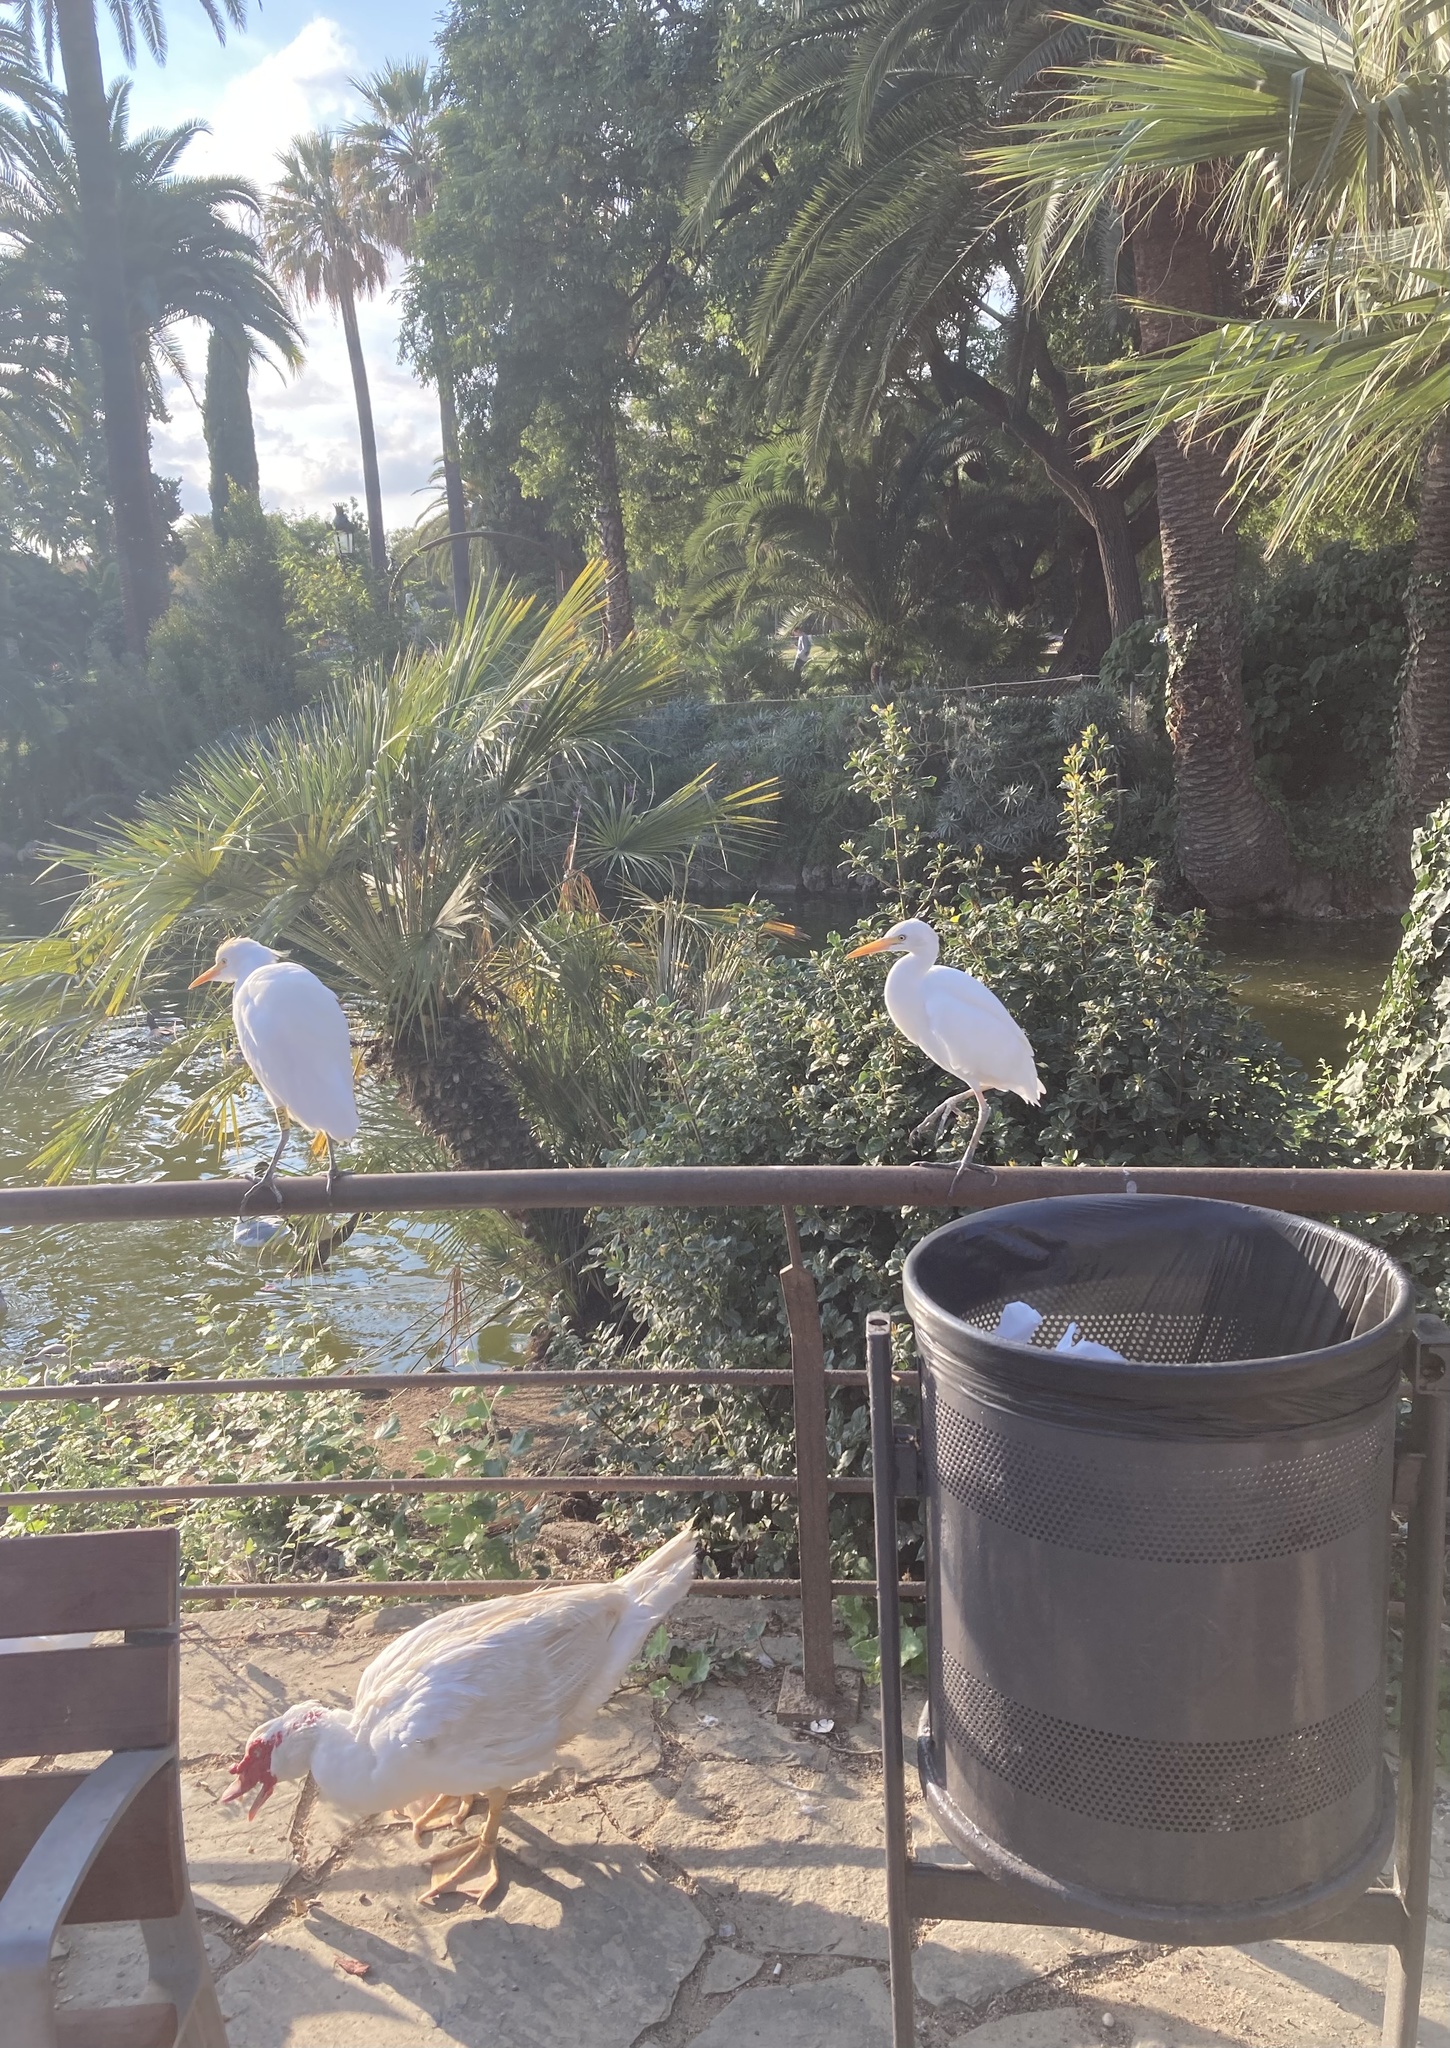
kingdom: Animalia
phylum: Chordata
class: Aves
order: Pelecaniformes
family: Ardeidae
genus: Bubulcus
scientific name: Bubulcus ibis
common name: Cattle egret
